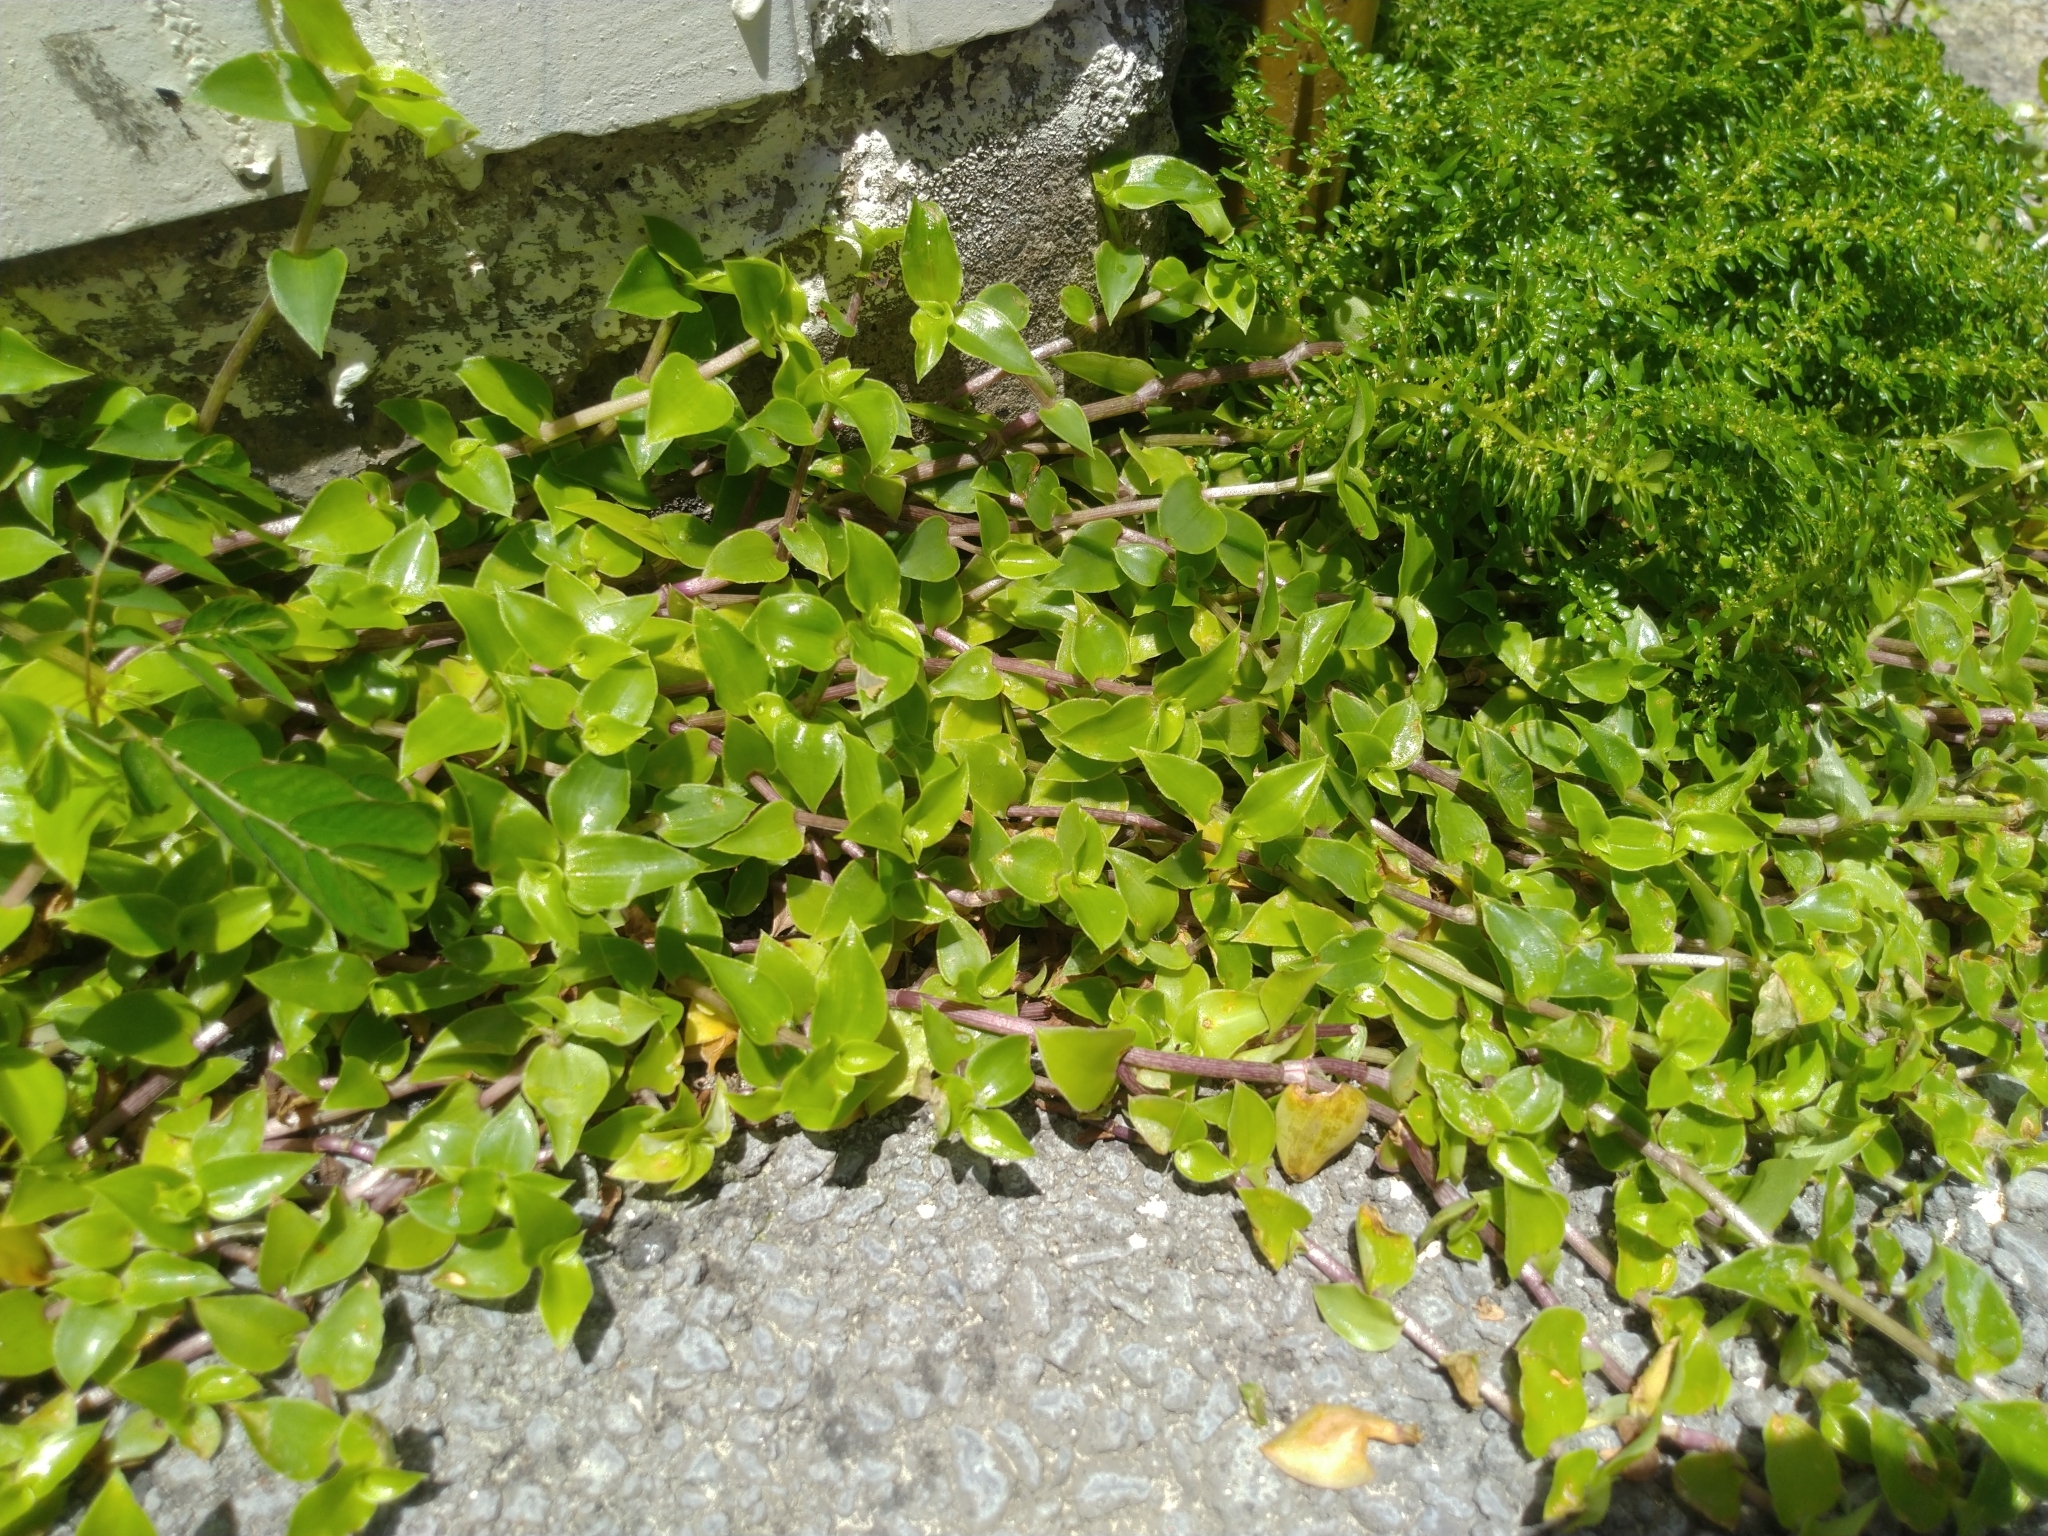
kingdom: Plantae
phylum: Tracheophyta
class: Liliopsida
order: Commelinales
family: Commelinaceae
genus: Callisia
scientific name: Callisia repens
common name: Creeping inchplant
